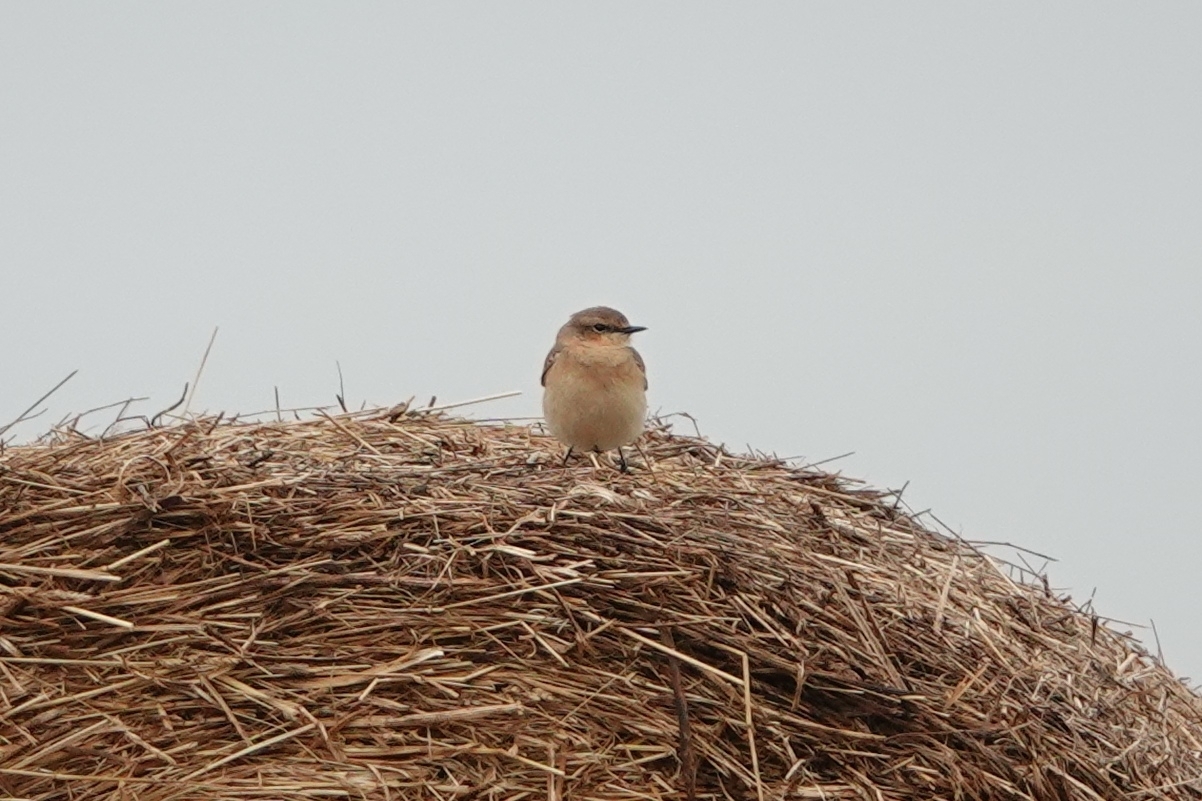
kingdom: Animalia
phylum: Chordata
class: Aves
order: Passeriformes
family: Muscicapidae
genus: Oenanthe
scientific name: Oenanthe oenanthe
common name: Northern wheatear
